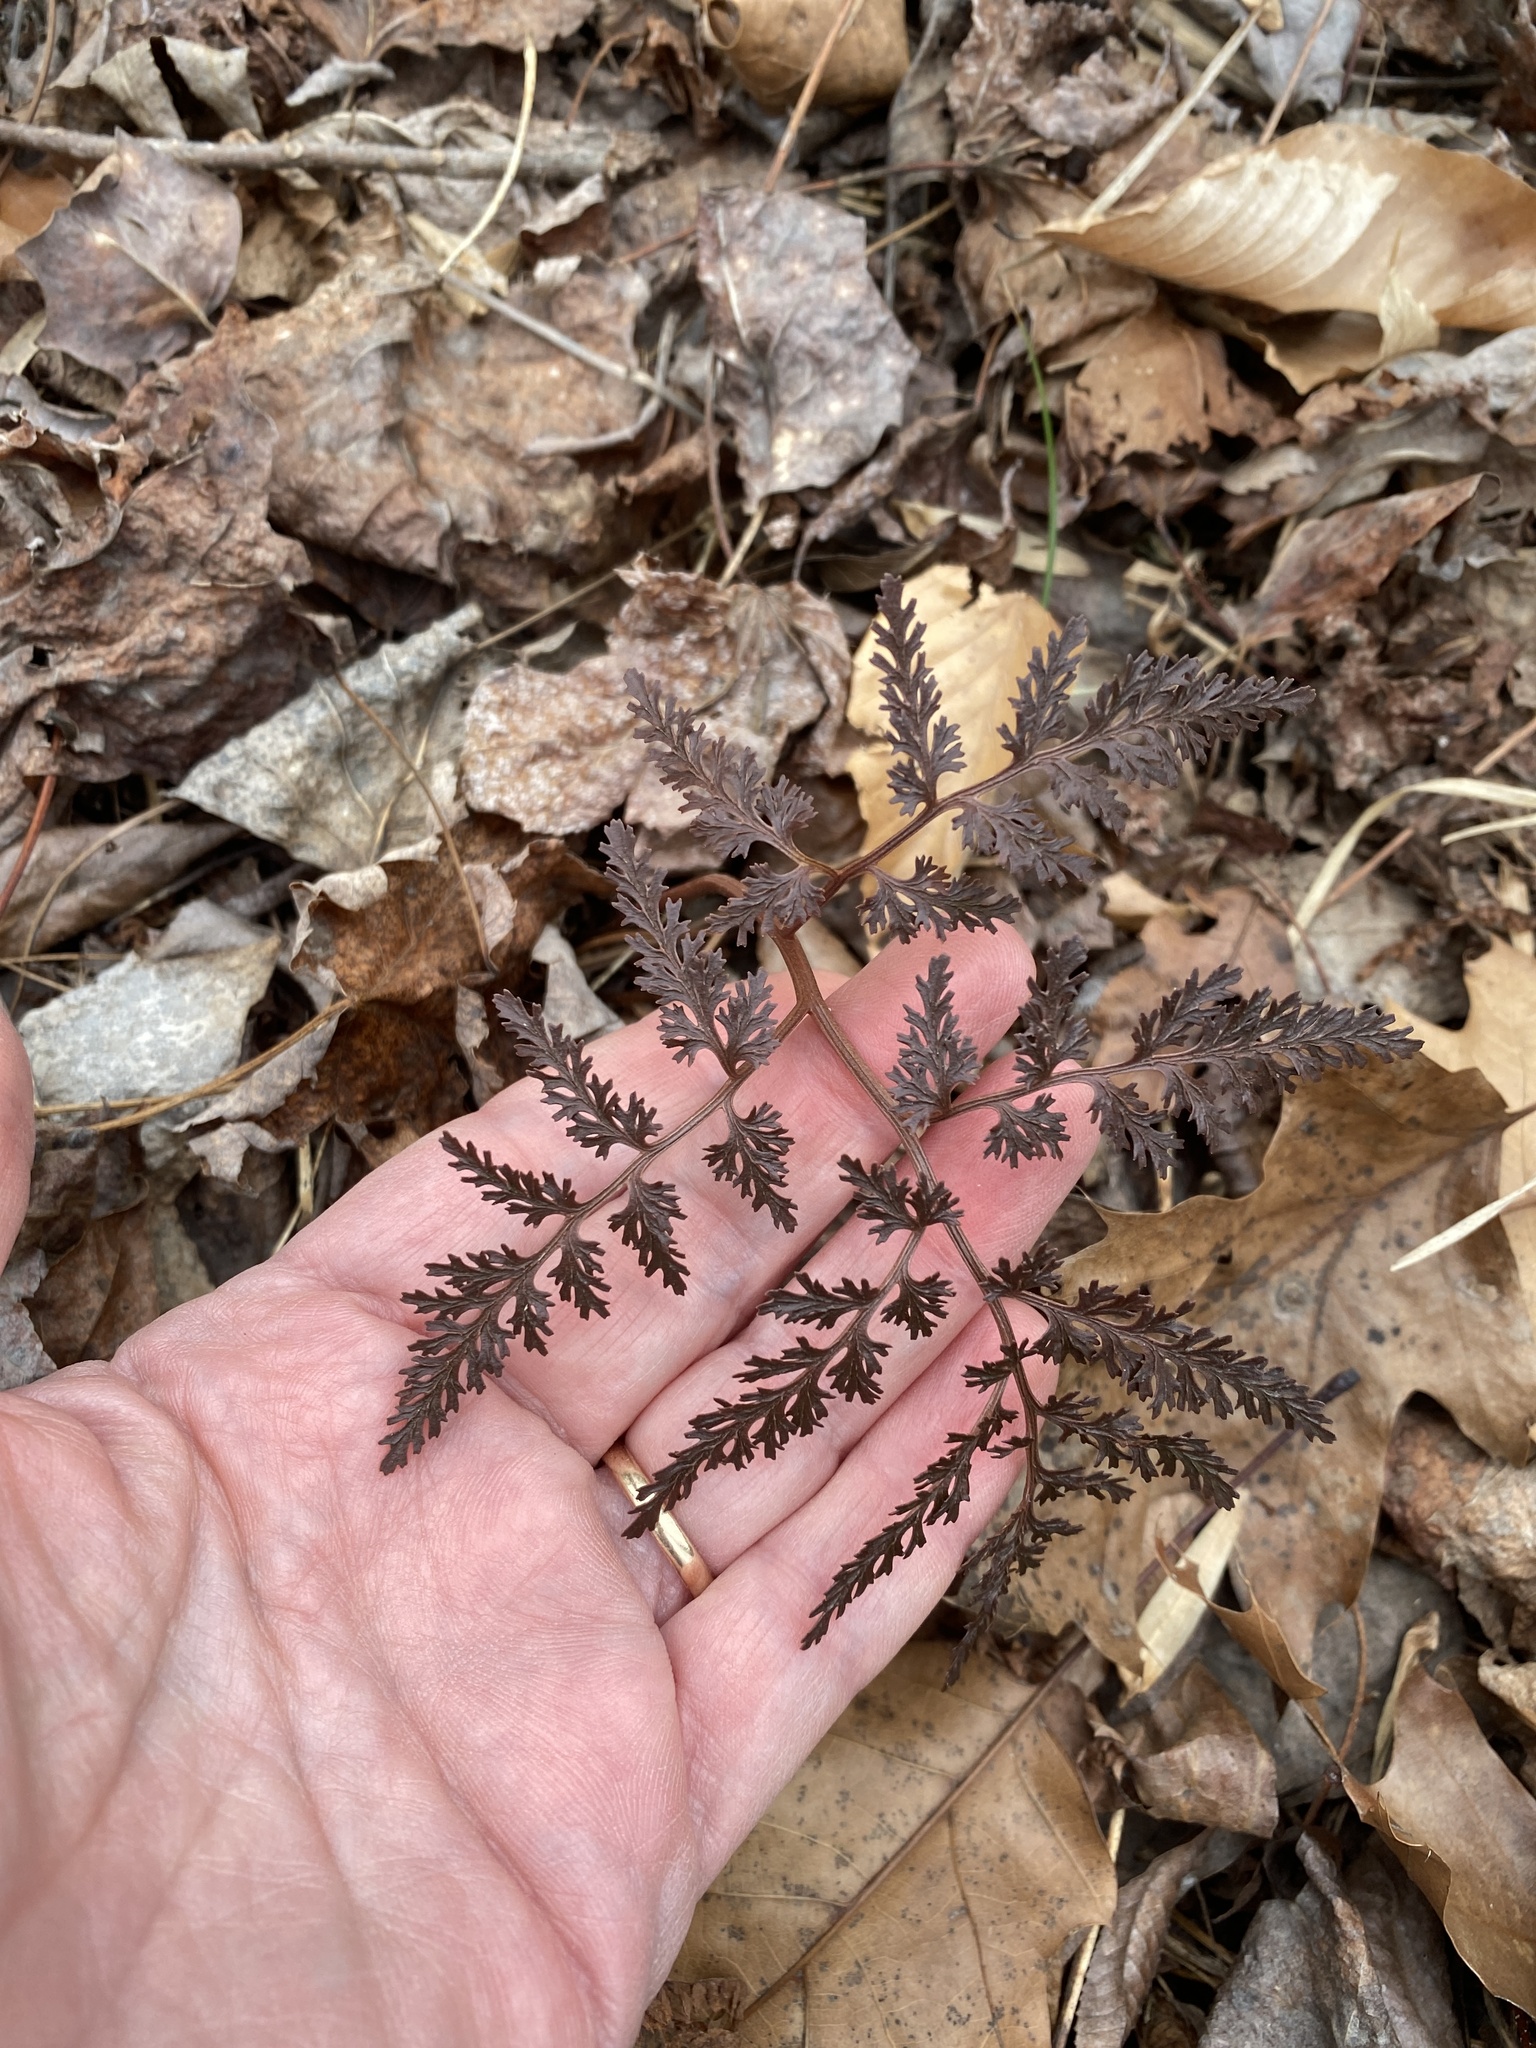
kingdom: Plantae
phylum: Tracheophyta
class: Polypodiopsida
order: Ophioglossales
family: Ophioglossaceae
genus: Sceptridium
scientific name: Sceptridium dissectum
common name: Cut-leaved grapefern
